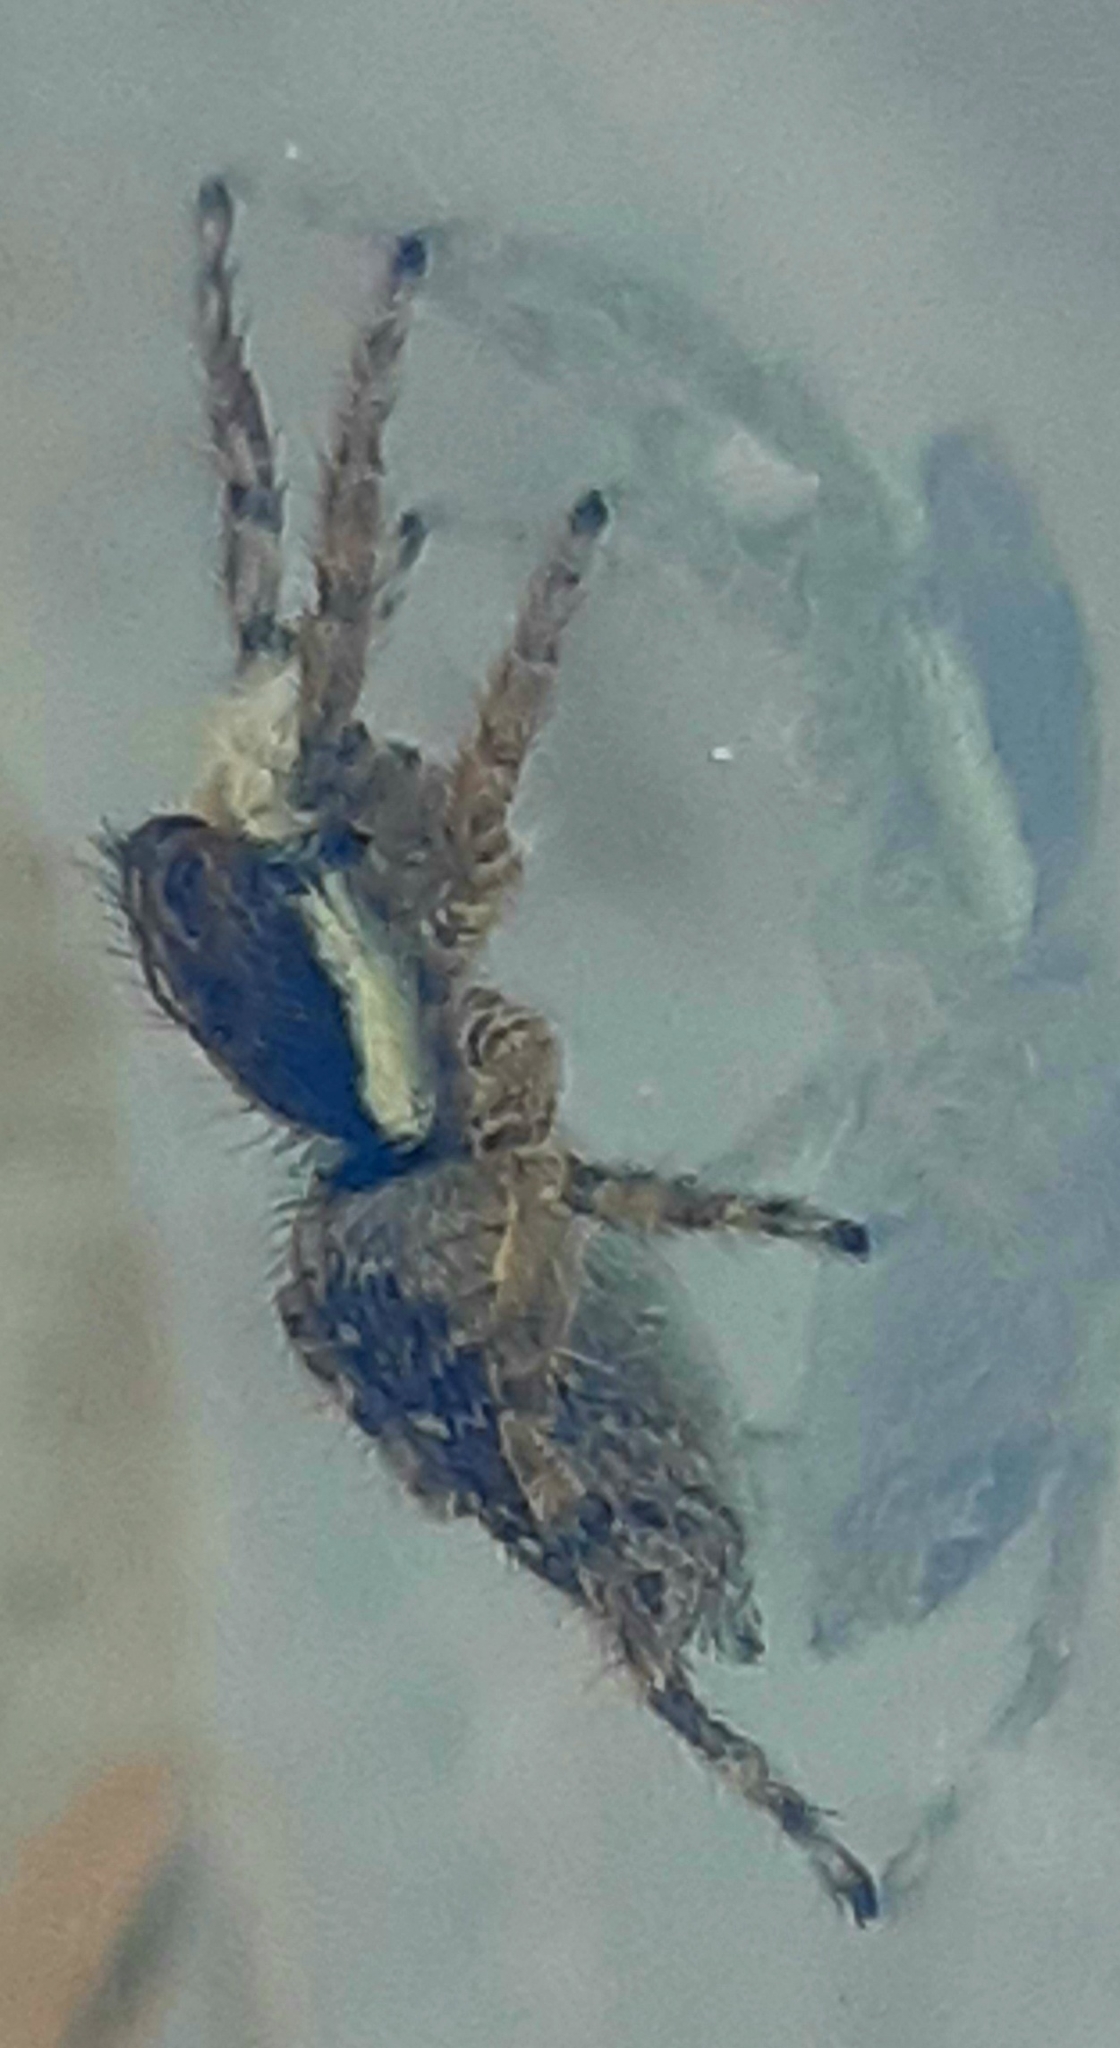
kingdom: Animalia
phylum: Arthropoda
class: Arachnida
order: Araneae
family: Salticidae
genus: Menemerus
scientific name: Menemerus semilimbatus
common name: Jumping spider
